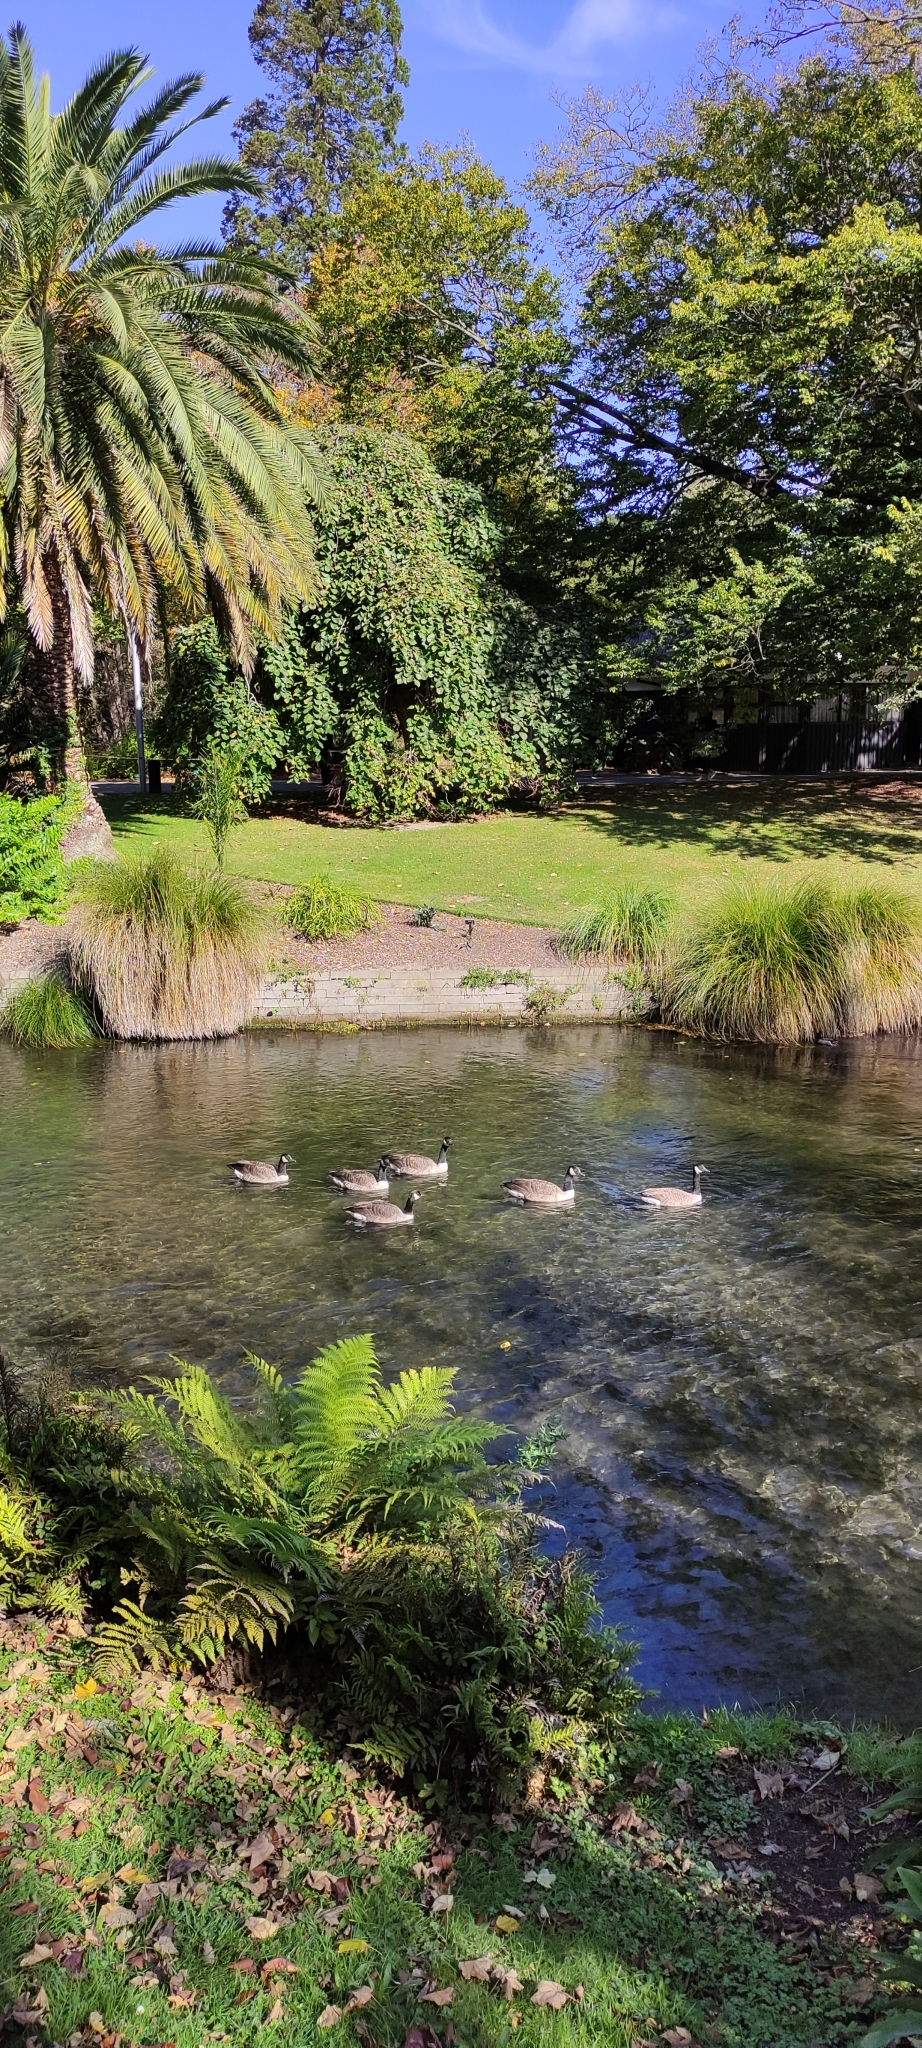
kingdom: Animalia
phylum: Chordata
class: Aves
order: Anseriformes
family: Anatidae
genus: Branta
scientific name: Branta canadensis
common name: Canada goose
